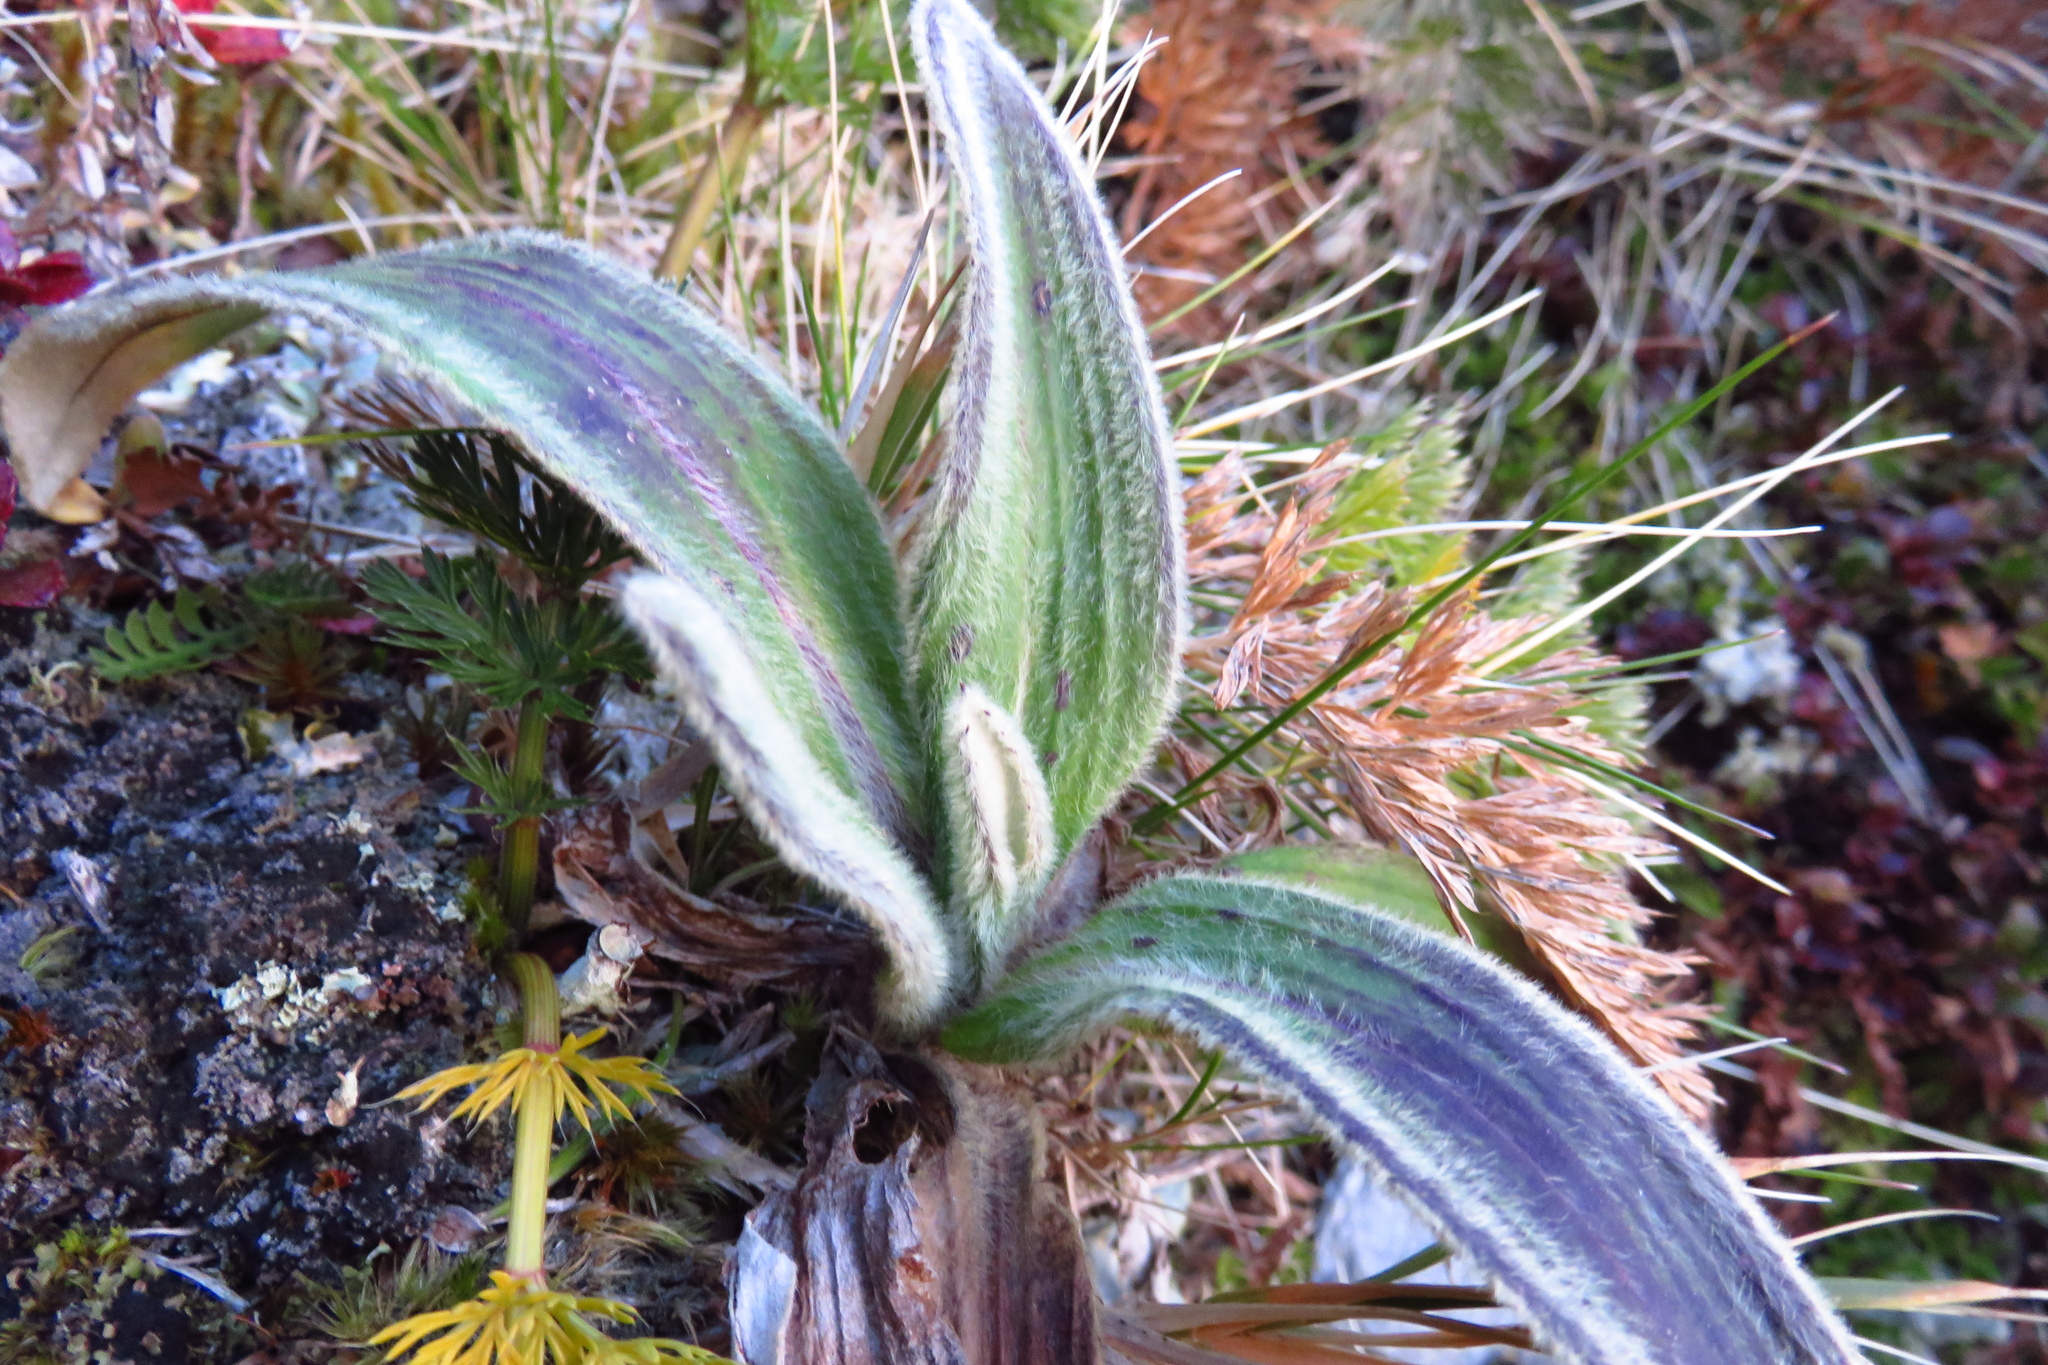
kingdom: Plantae
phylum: Tracheophyta
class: Magnoliopsida
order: Asterales
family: Asteraceae
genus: Celmisia
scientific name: Celmisia verbascifolia
